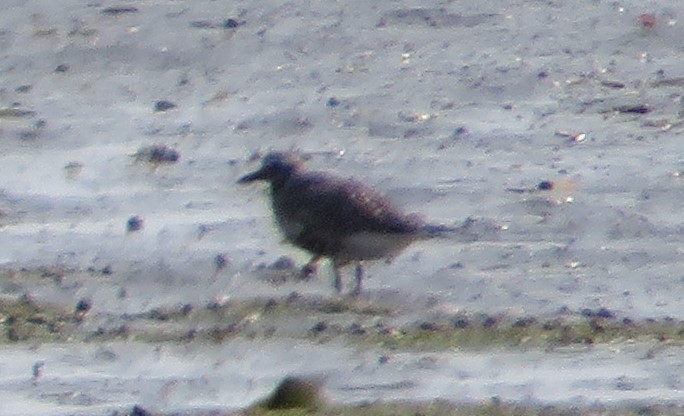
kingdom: Animalia
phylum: Chordata
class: Aves
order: Charadriiformes
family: Charadriidae
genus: Pluvialis
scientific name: Pluvialis squatarola
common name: Grey plover
